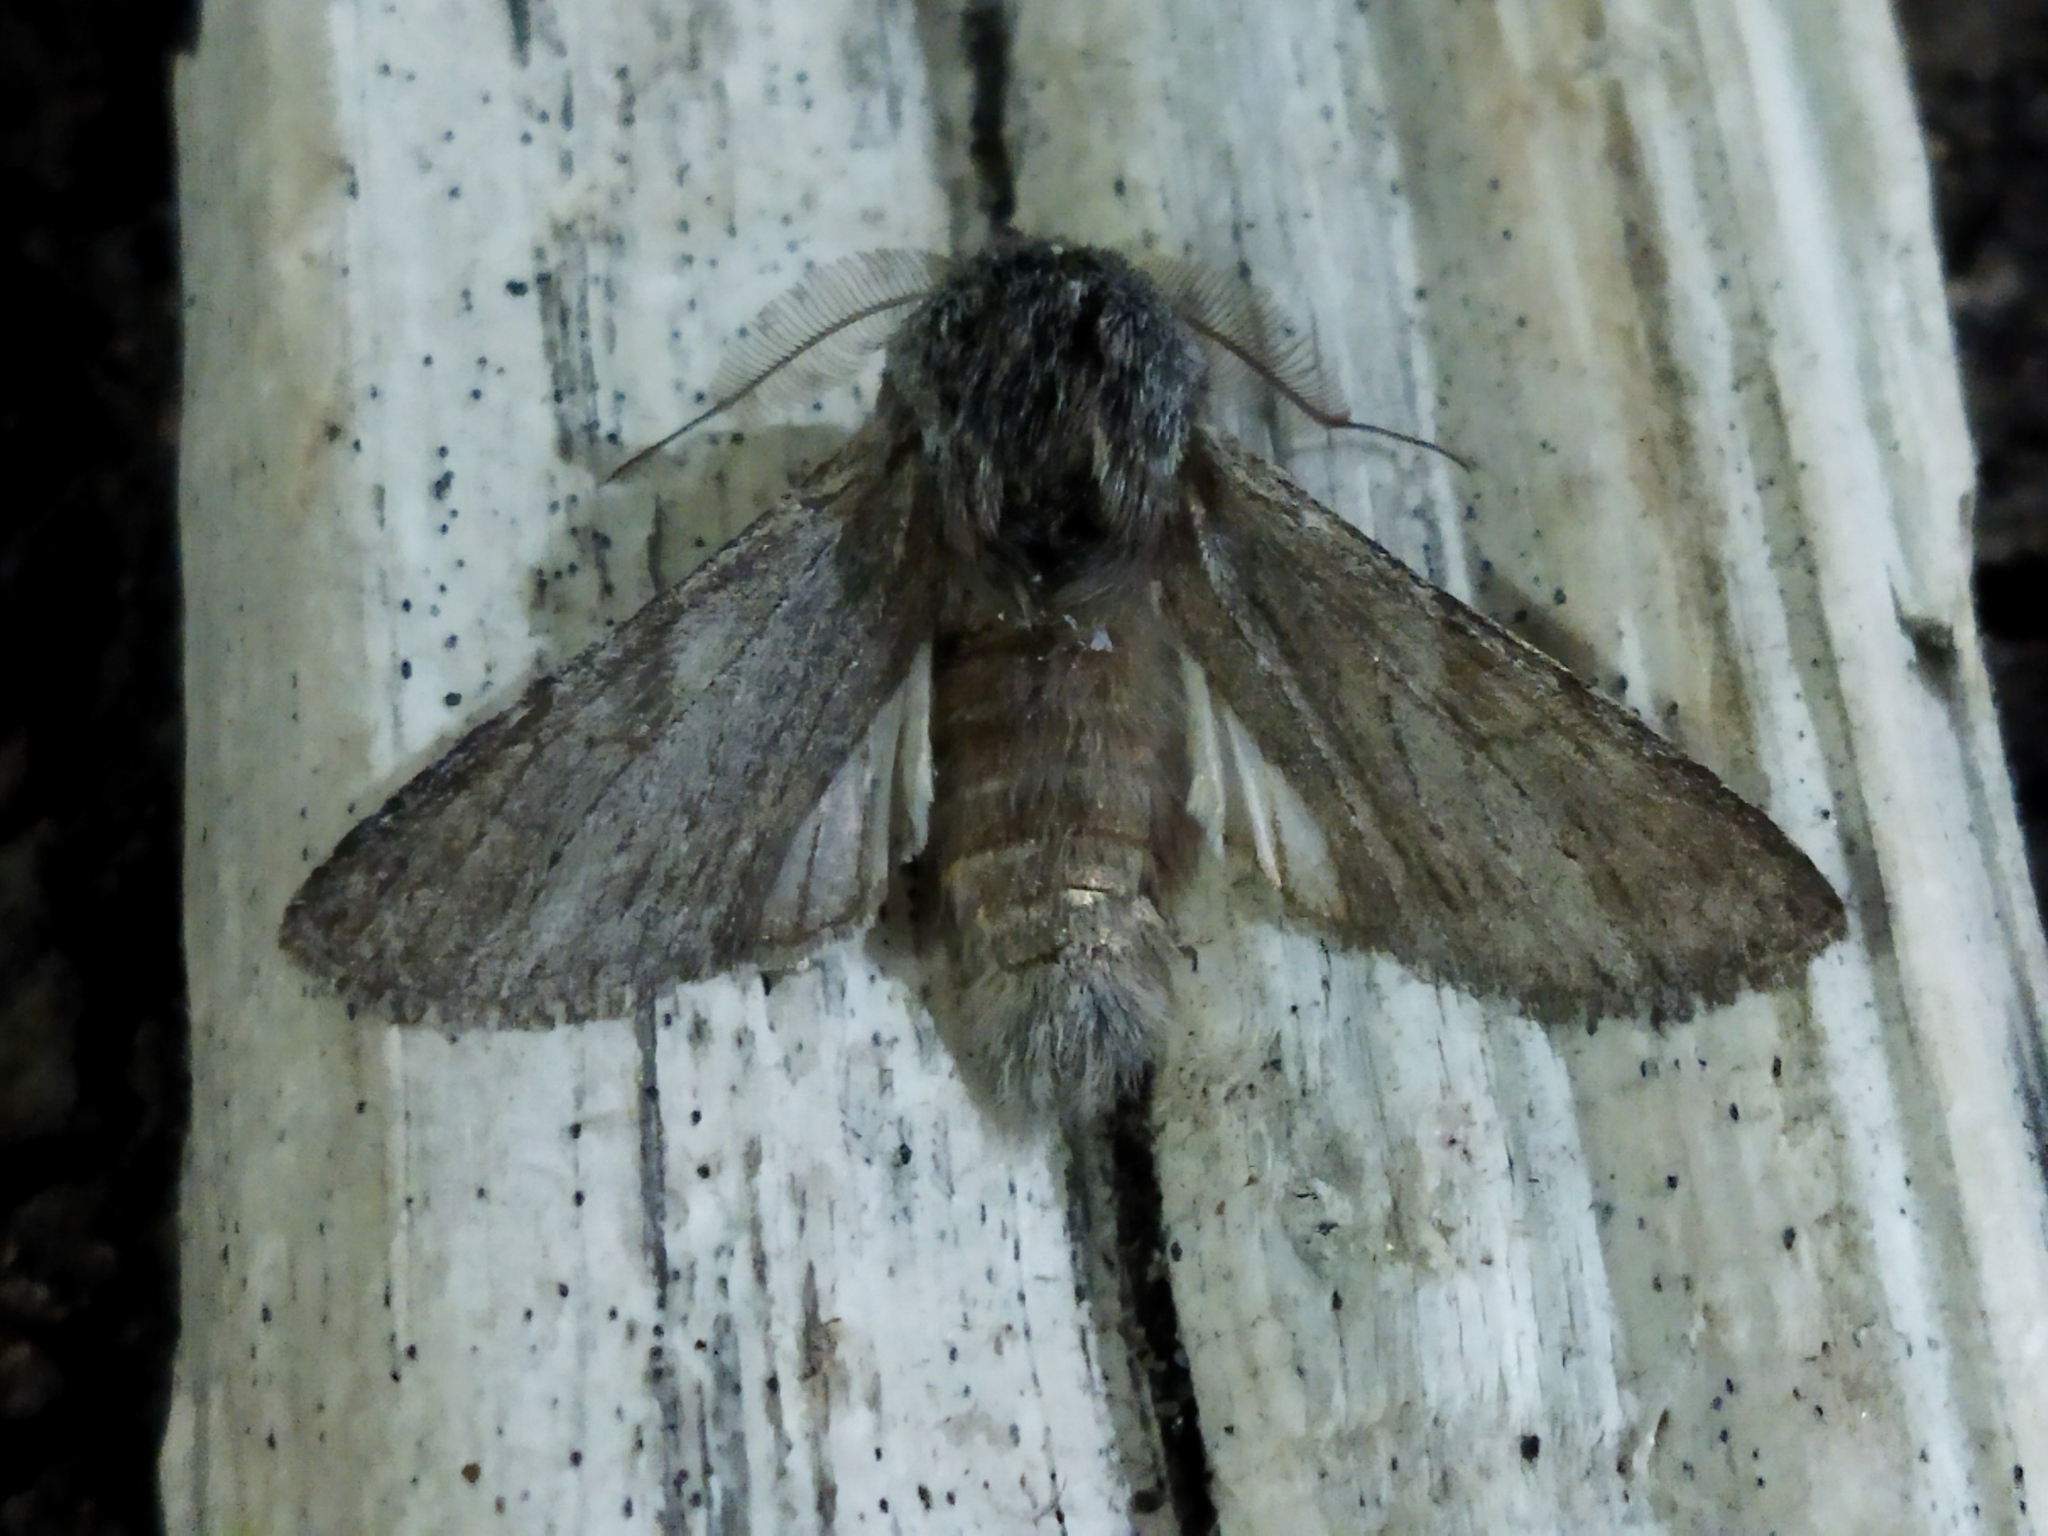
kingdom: Animalia
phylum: Arthropoda
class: Insecta
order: Lepidoptera
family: Notodontidae
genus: Dicranura
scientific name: Dicranura ulmi
